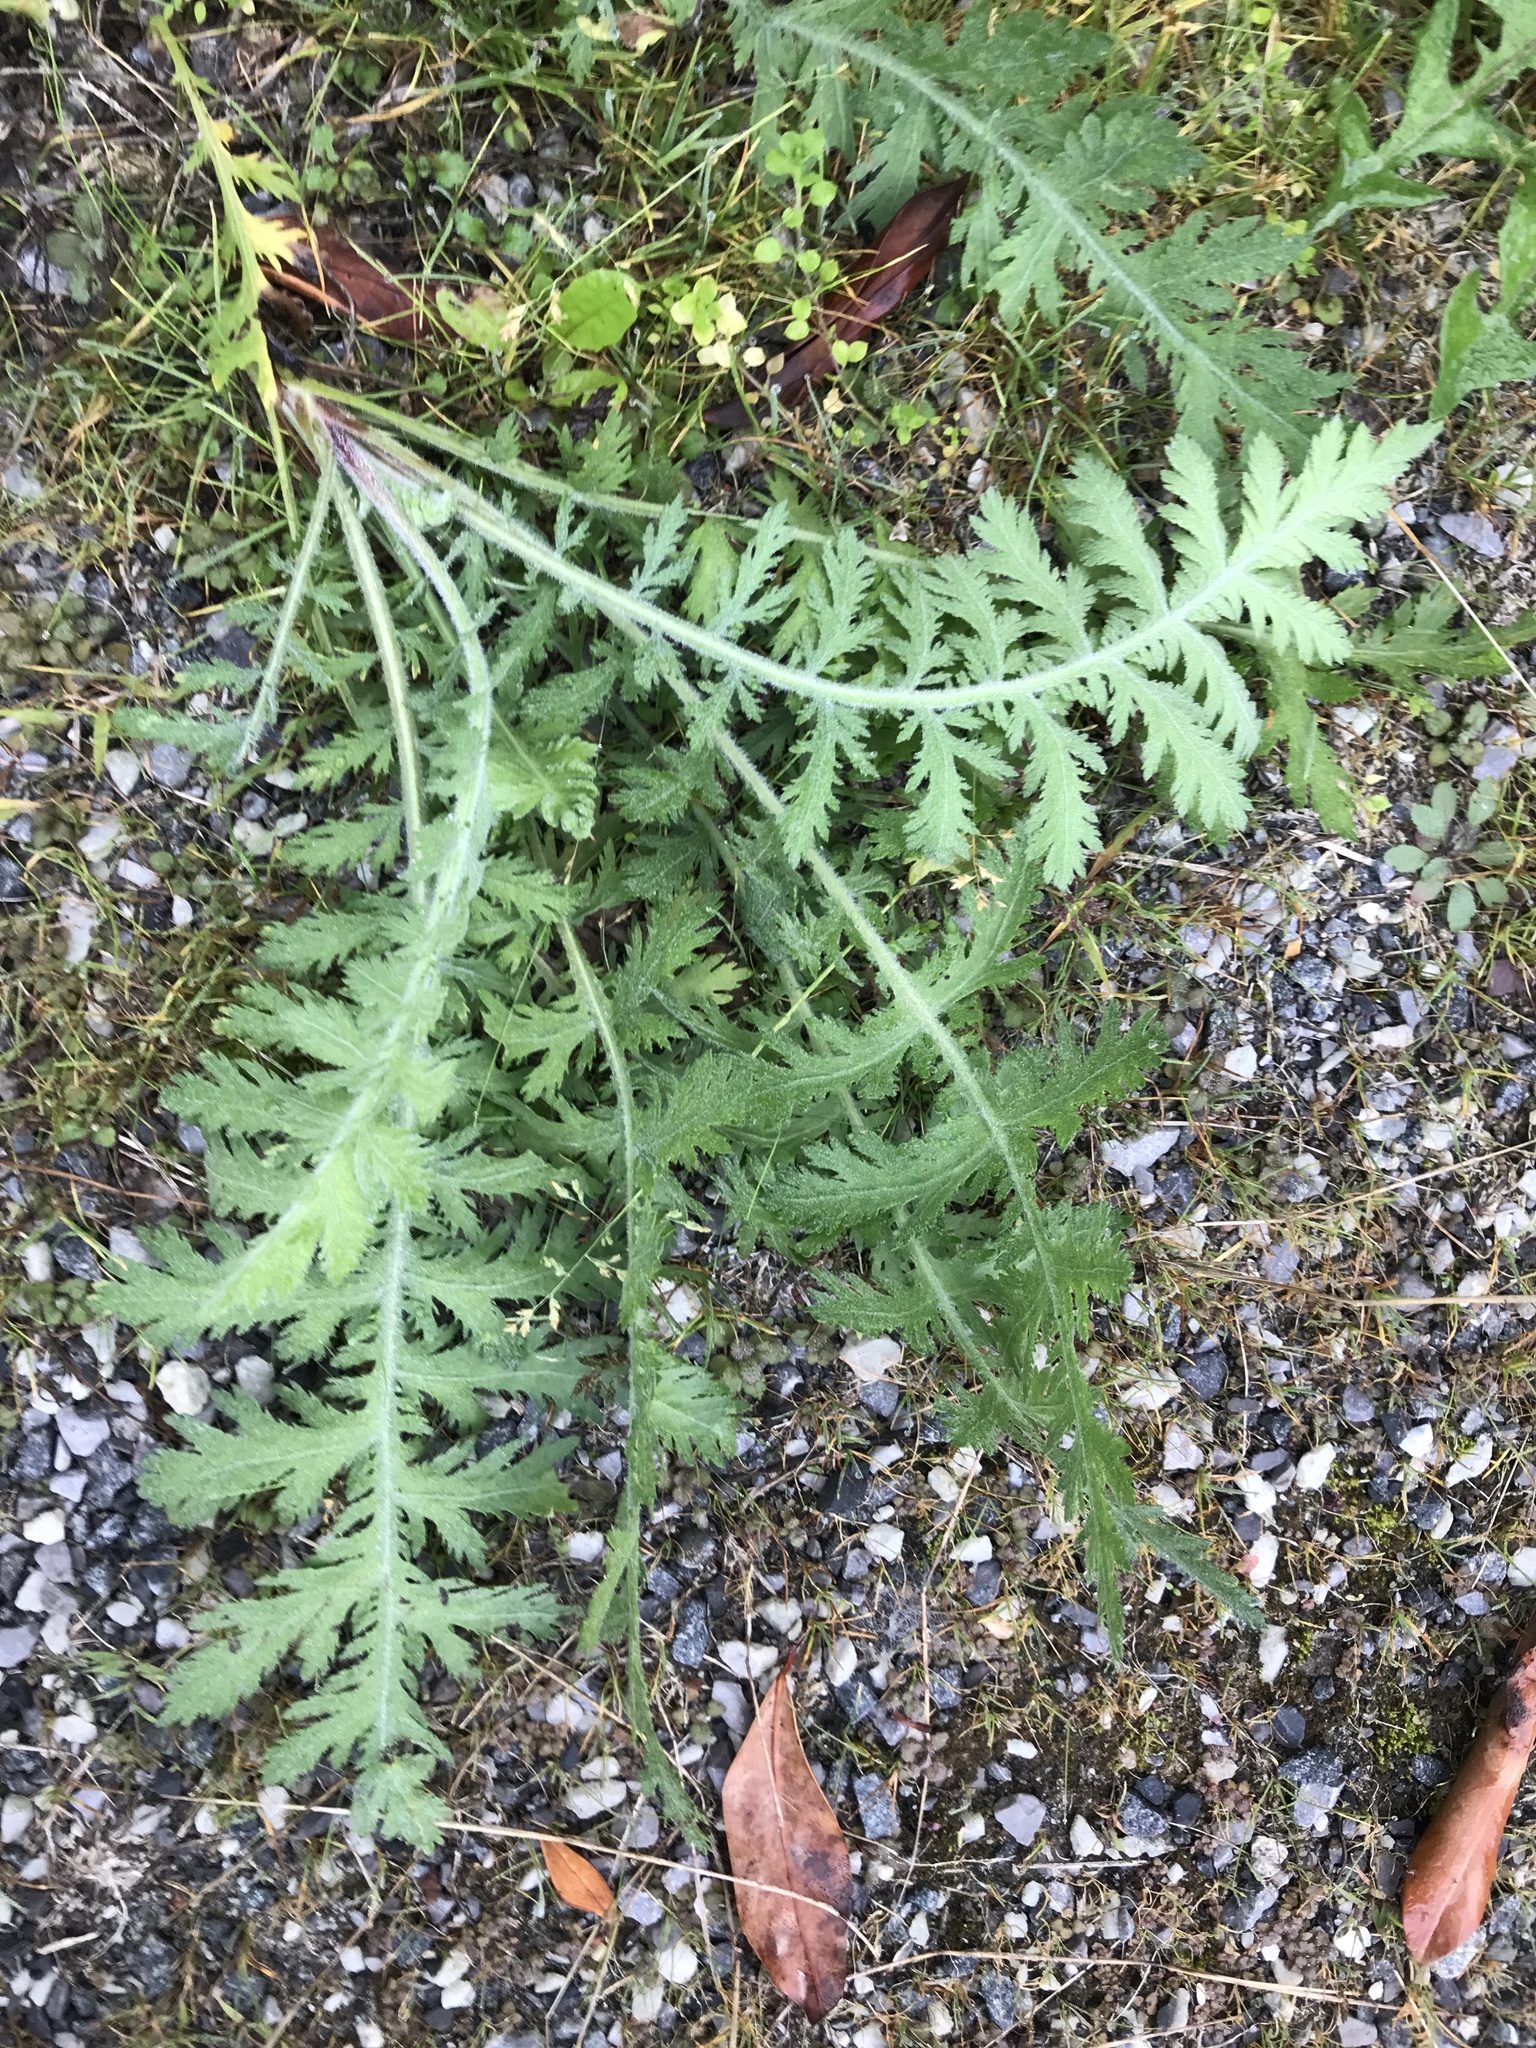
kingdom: Plantae
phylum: Tracheophyta
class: Magnoliopsida
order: Asterales
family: Asteraceae
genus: Tanacetum
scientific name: Tanacetum corymbosum
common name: Scentless feverfew
